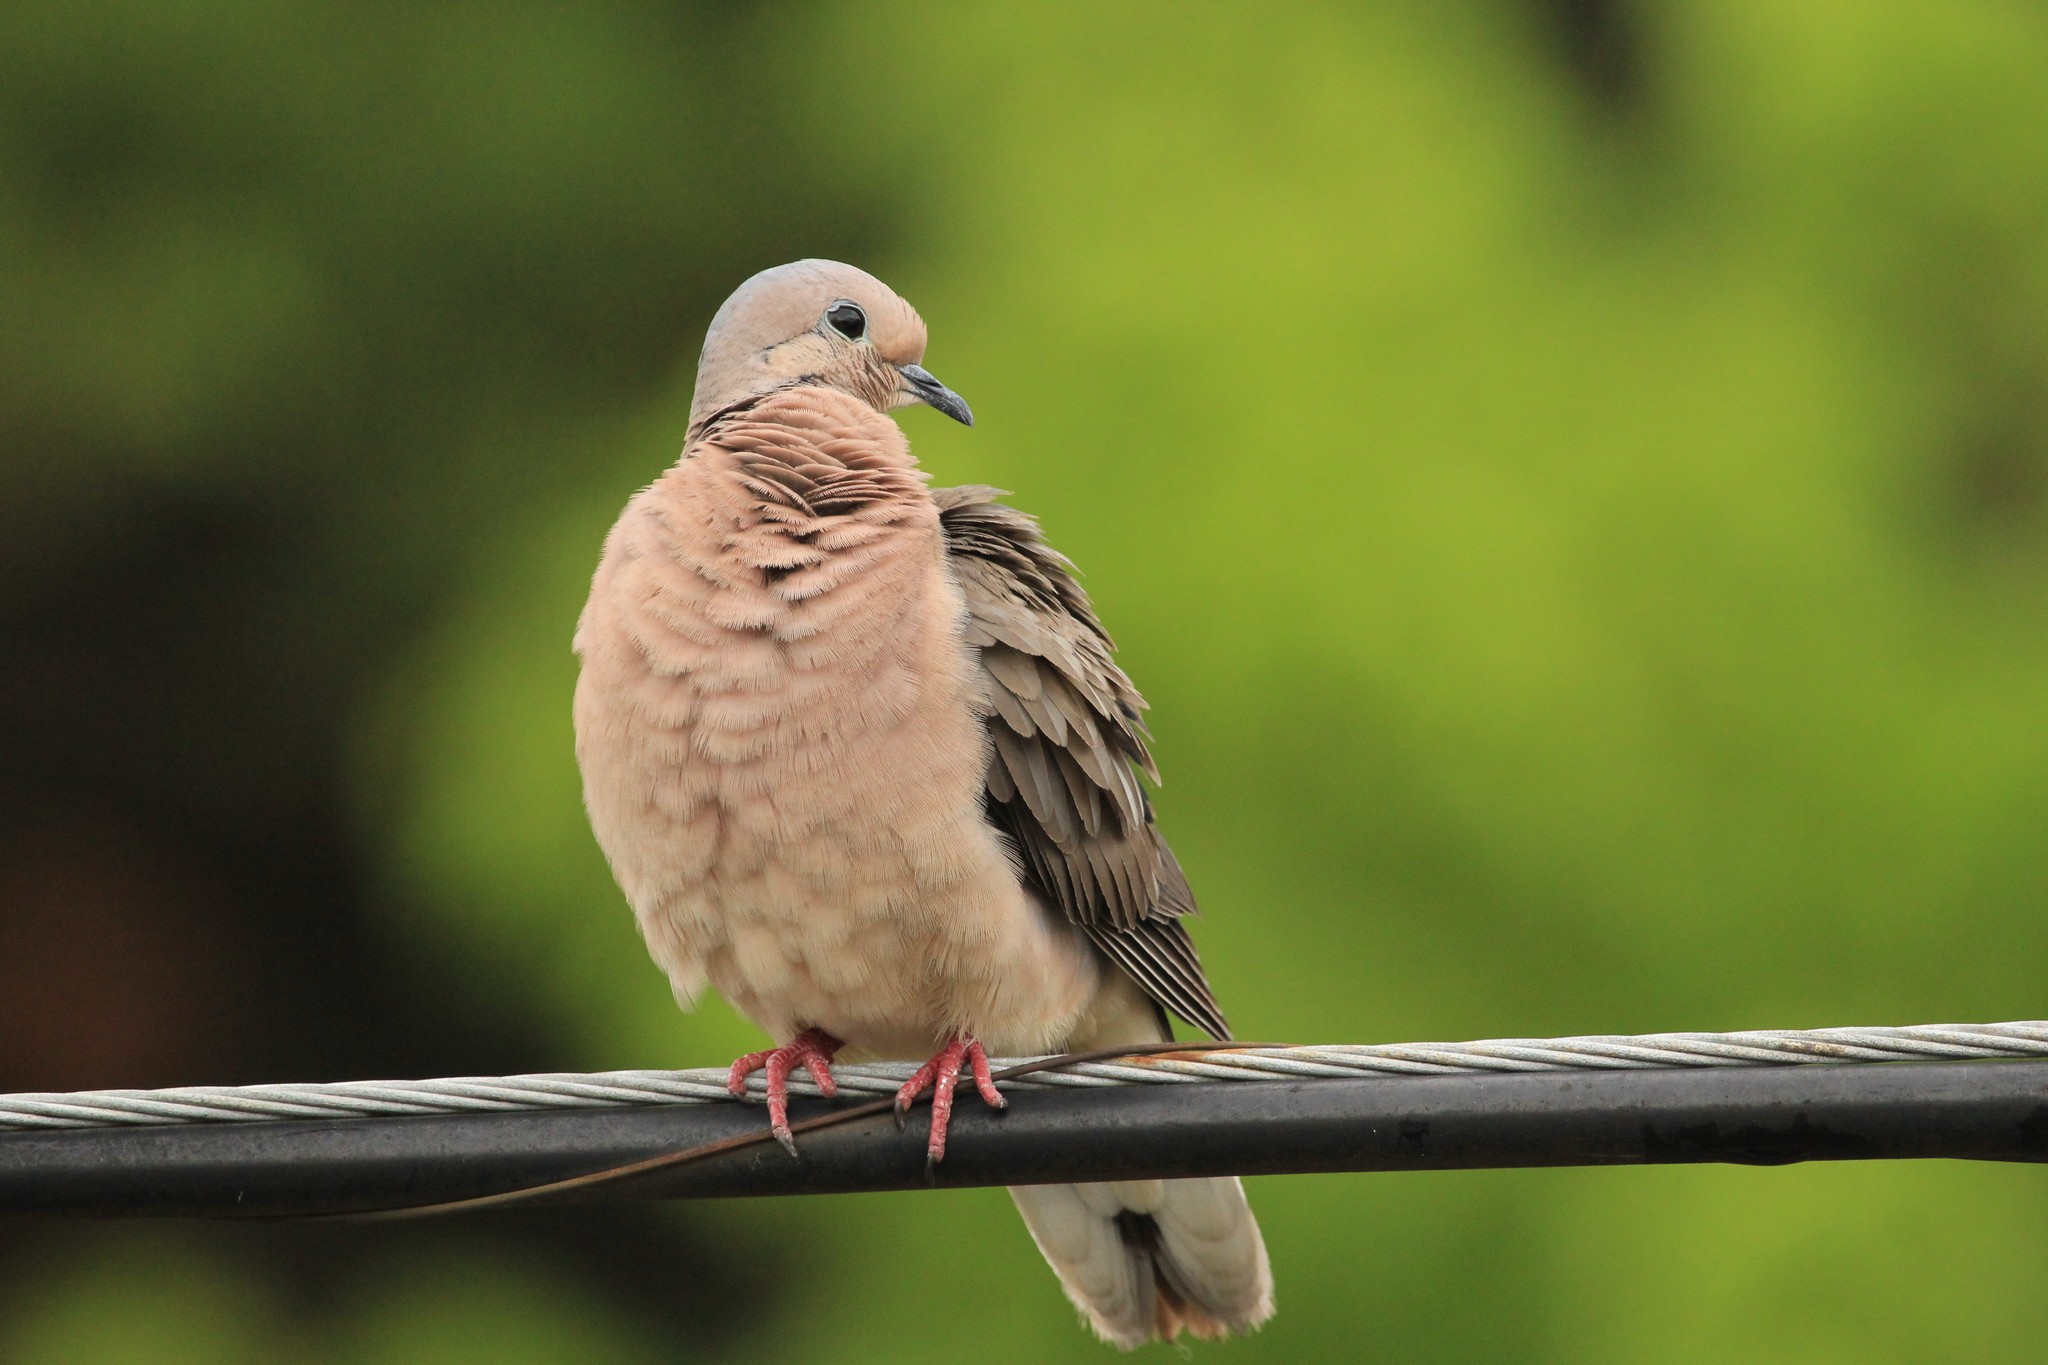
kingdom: Animalia
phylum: Chordata
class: Aves
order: Columbiformes
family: Columbidae
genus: Zenaida
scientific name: Zenaida auriculata
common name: Eared dove
